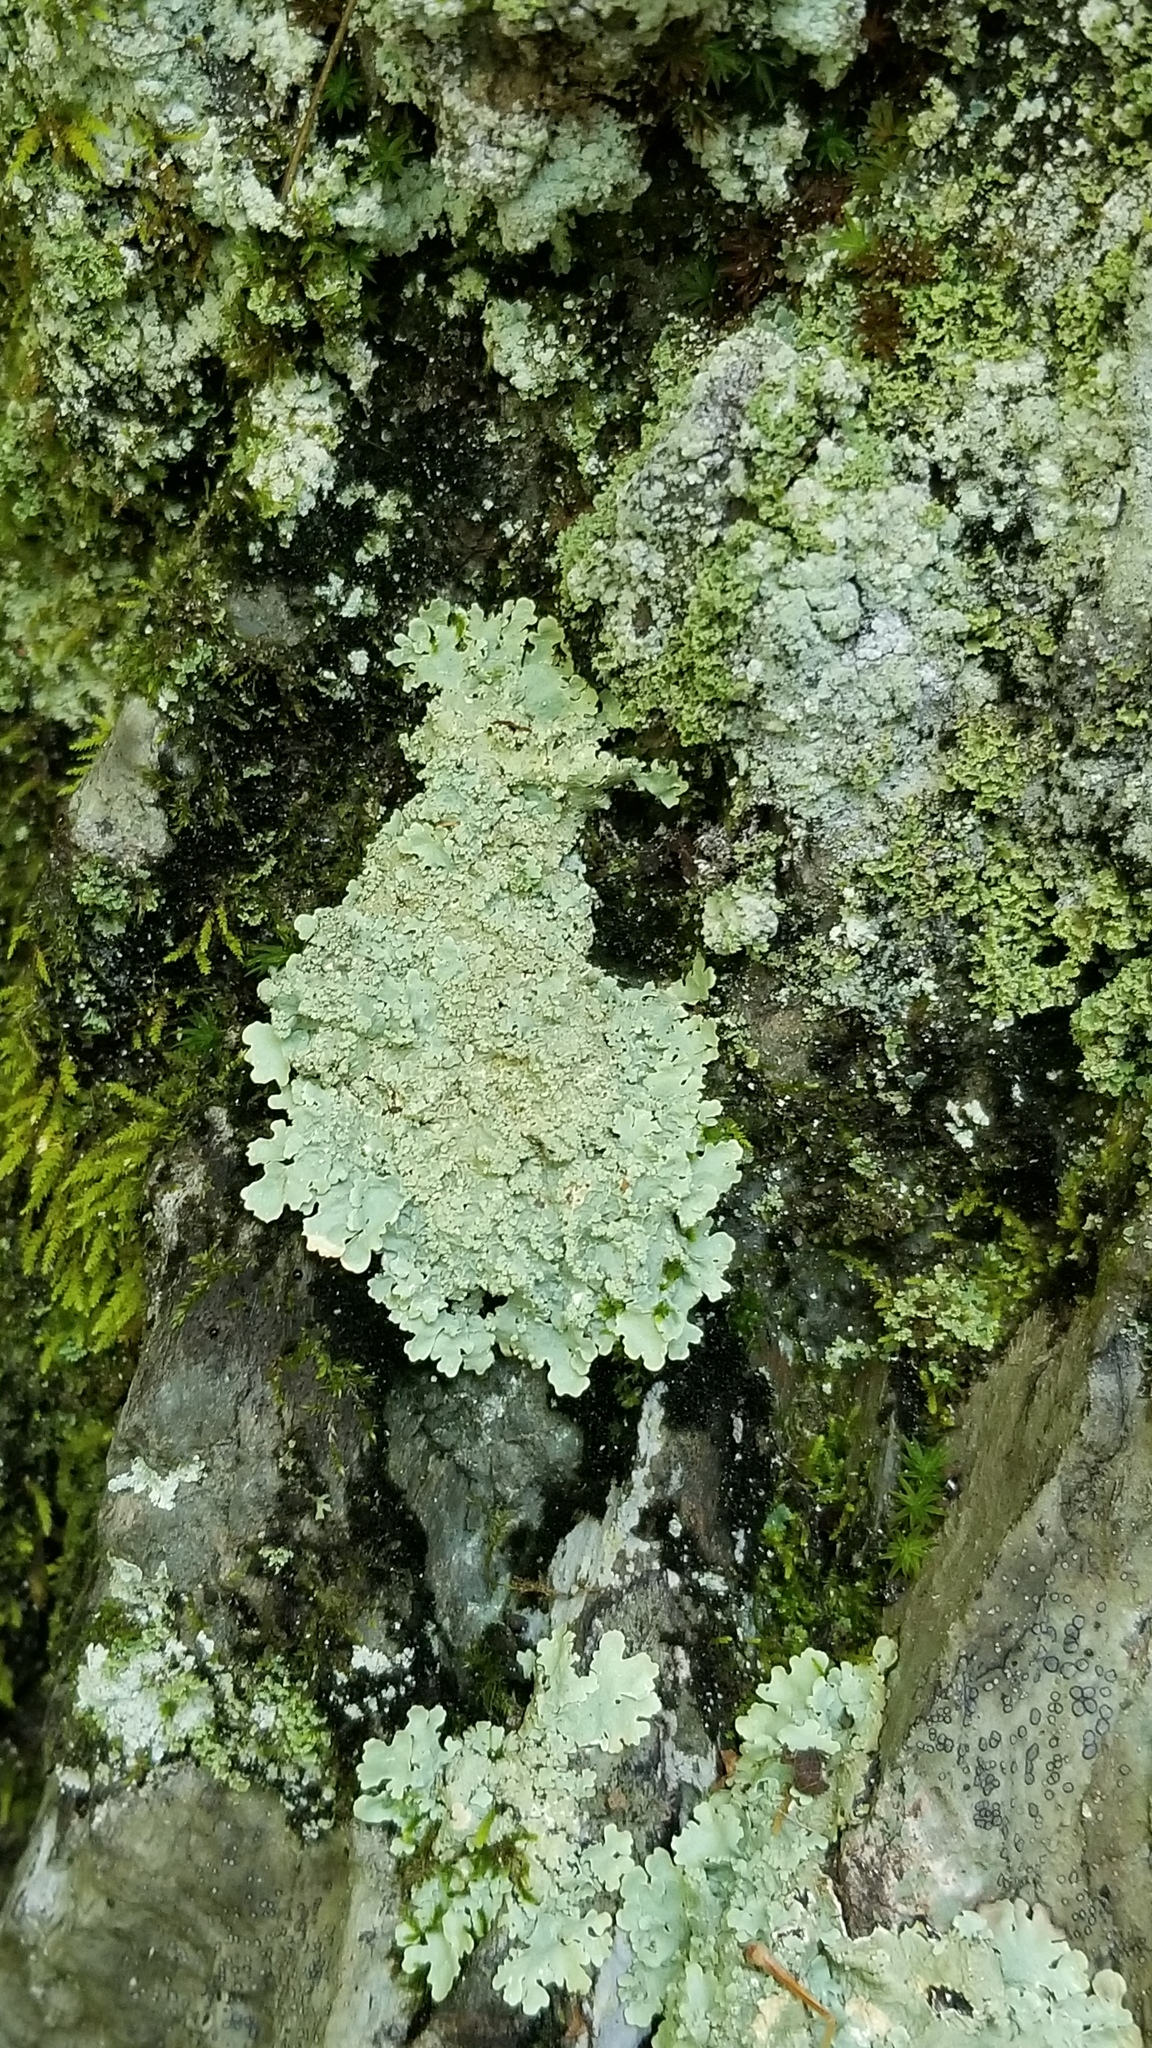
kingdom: Fungi
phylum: Ascomycota
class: Lecanoromycetes
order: Lecanorales
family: Parmeliaceae
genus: Flavoparmelia
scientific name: Flavoparmelia baltimorensis
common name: Rock greenshield
